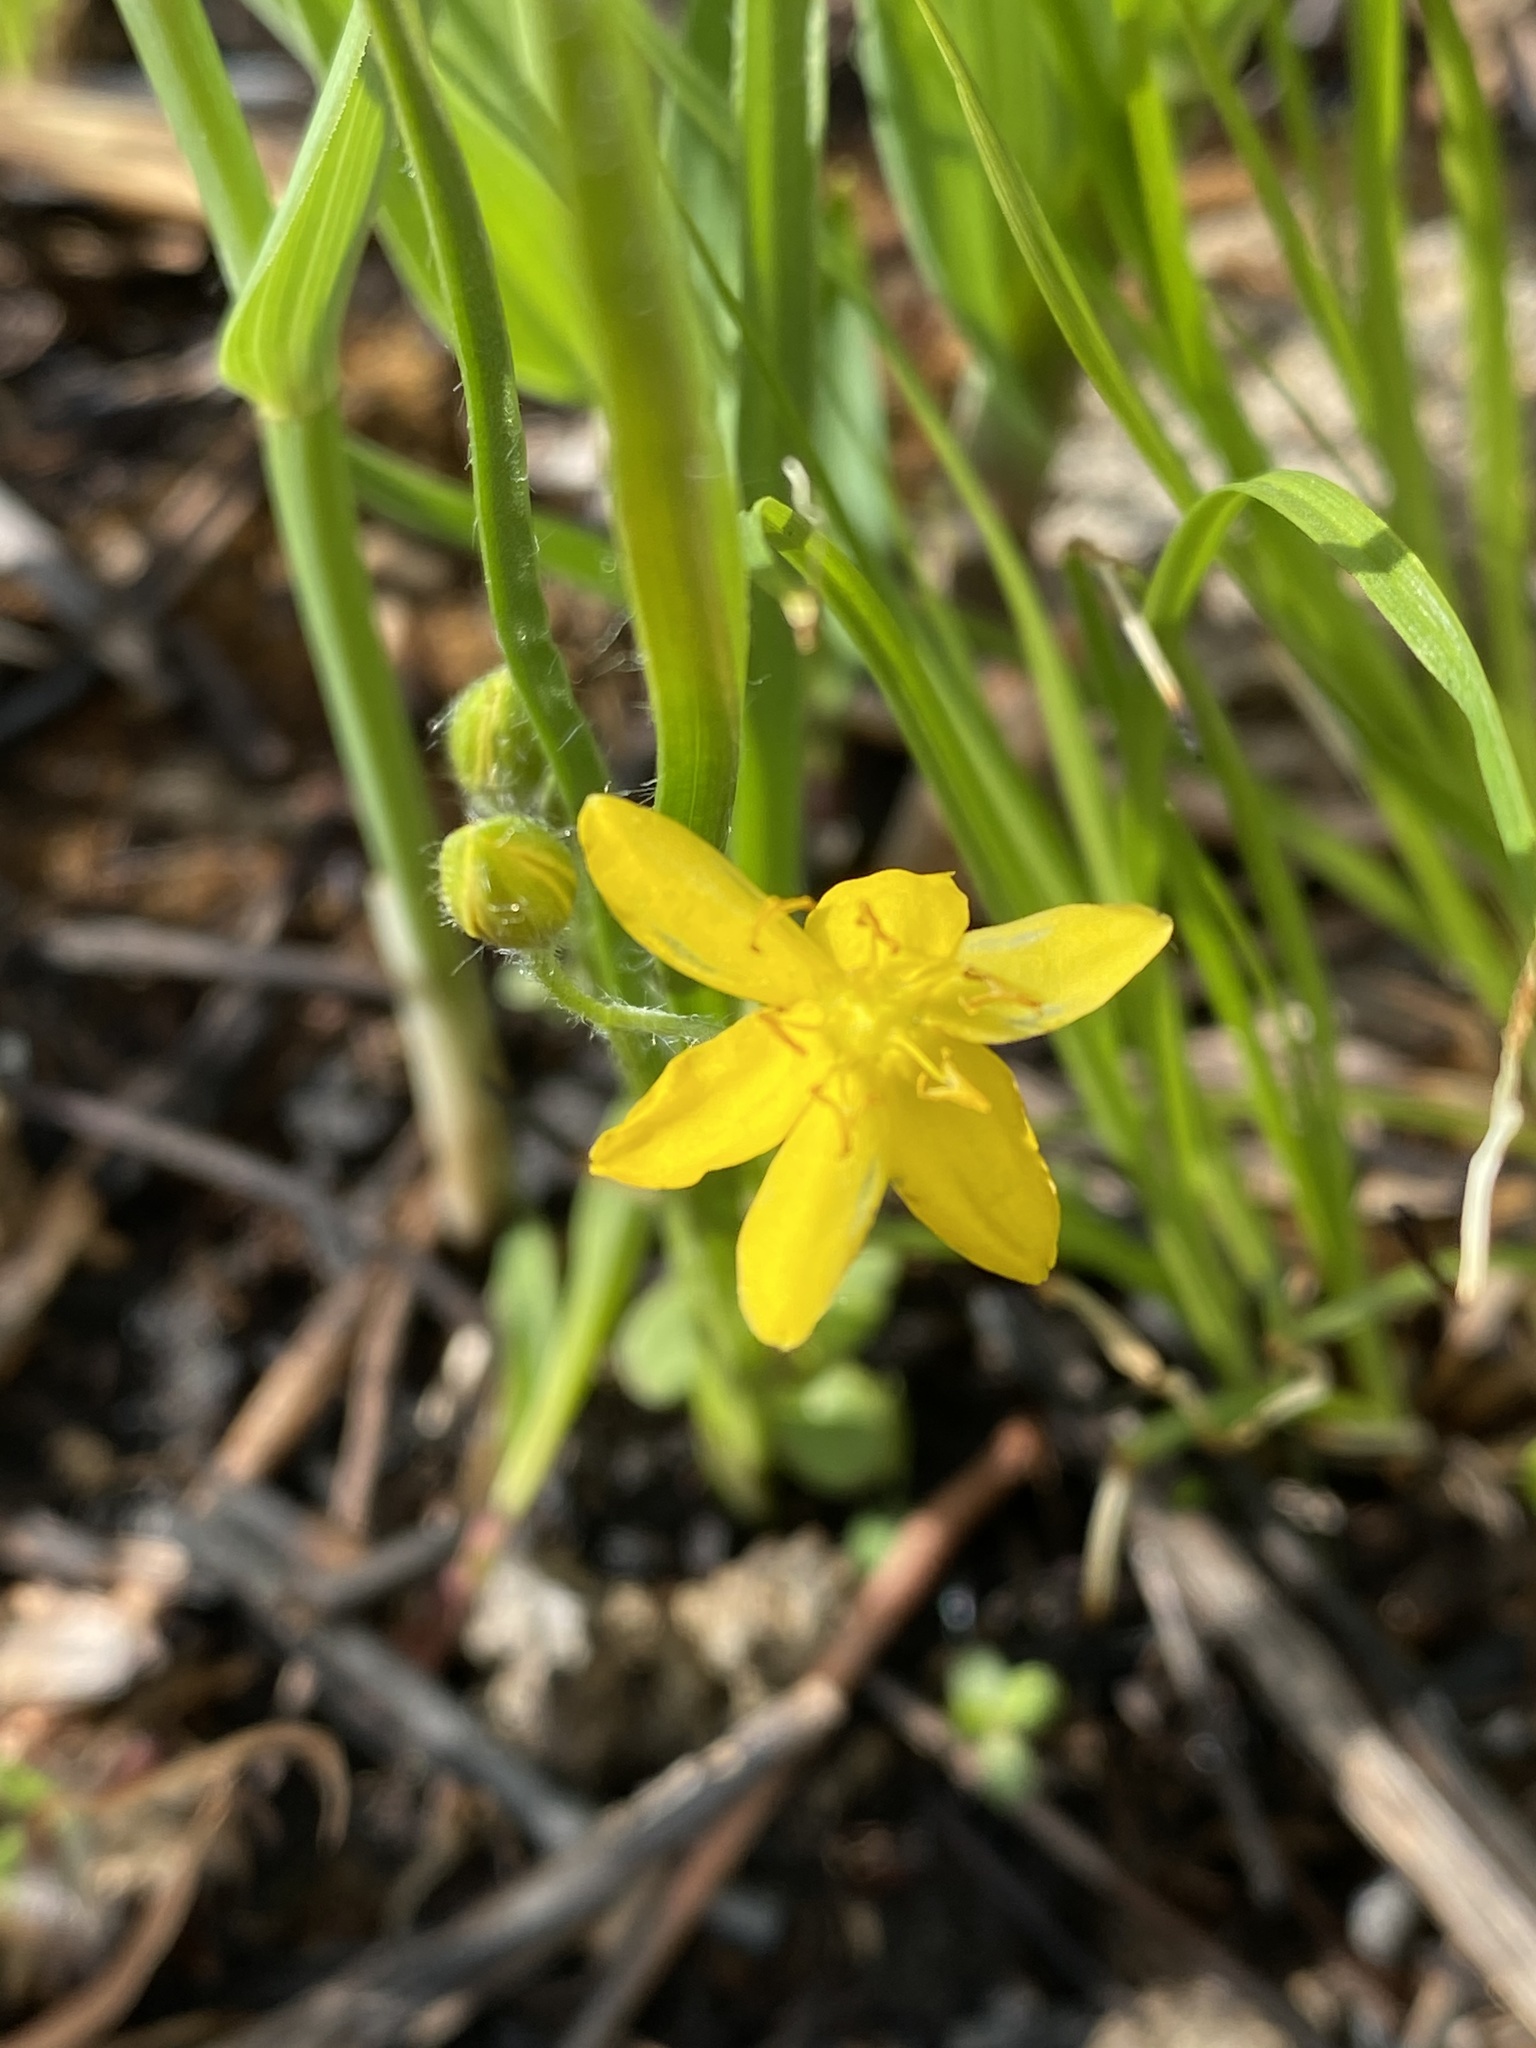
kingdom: Plantae
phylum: Tracheophyta
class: Liliopsida
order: Asparagales
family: Hypoxidaceae
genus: Hypoxis
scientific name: Hypoxis hirsuta
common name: Common goldstar
